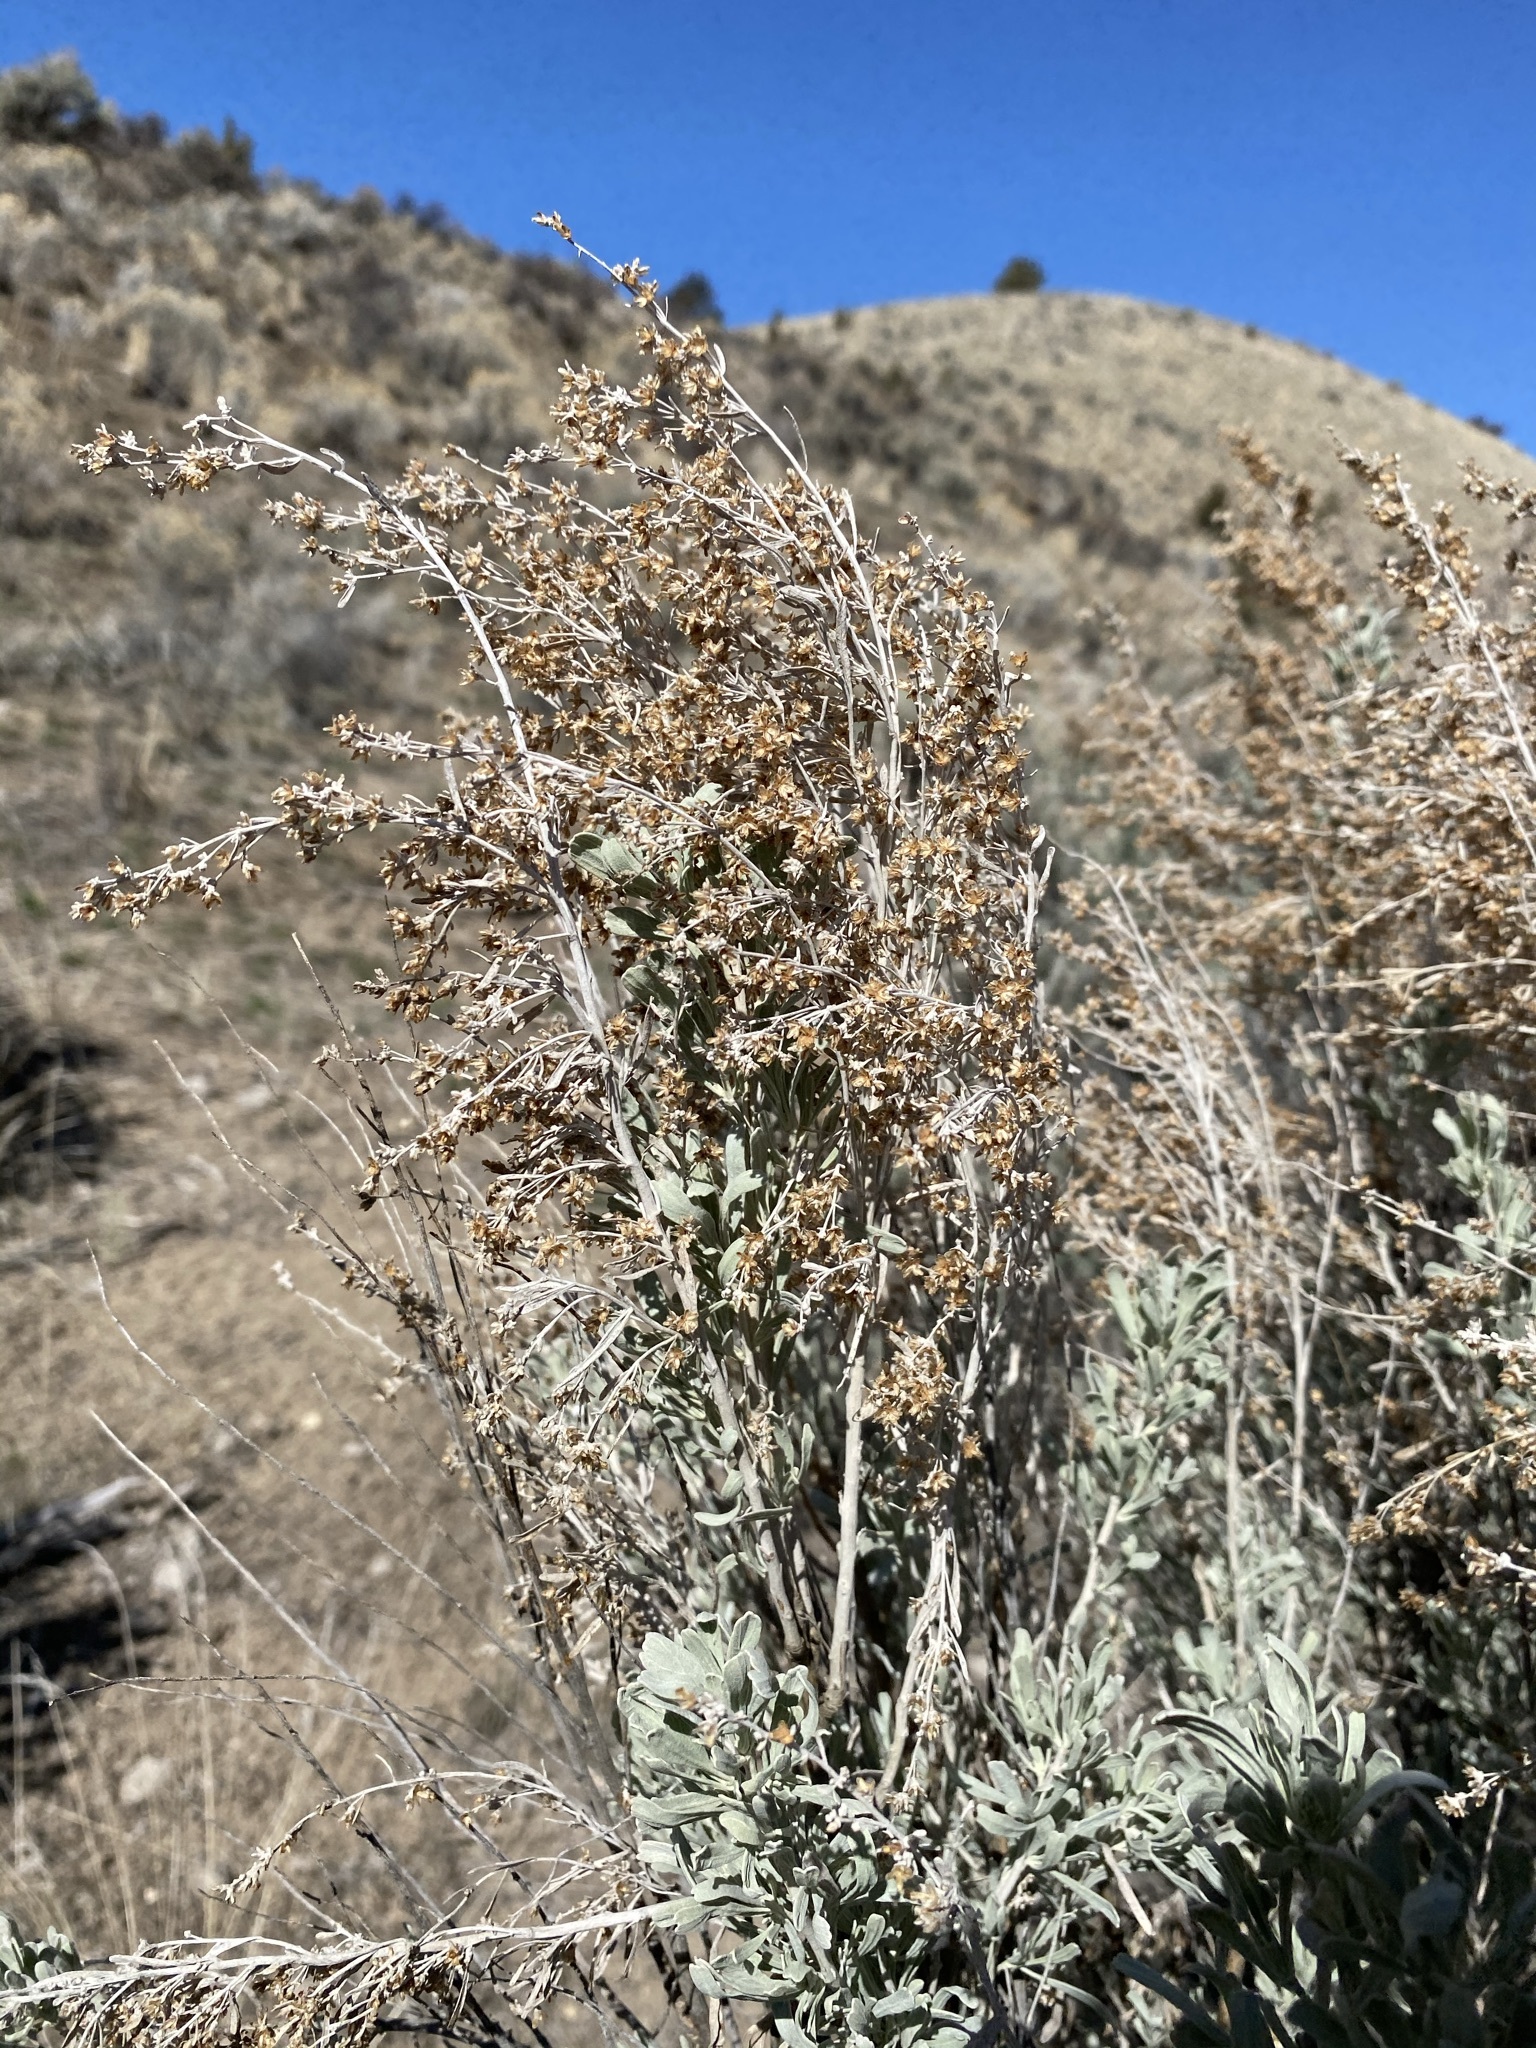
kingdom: Plantae
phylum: Tracheophyta
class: Magnoliopsida
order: Asterales
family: Asteraceae
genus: Artemisia
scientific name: Artemisia tridentata
